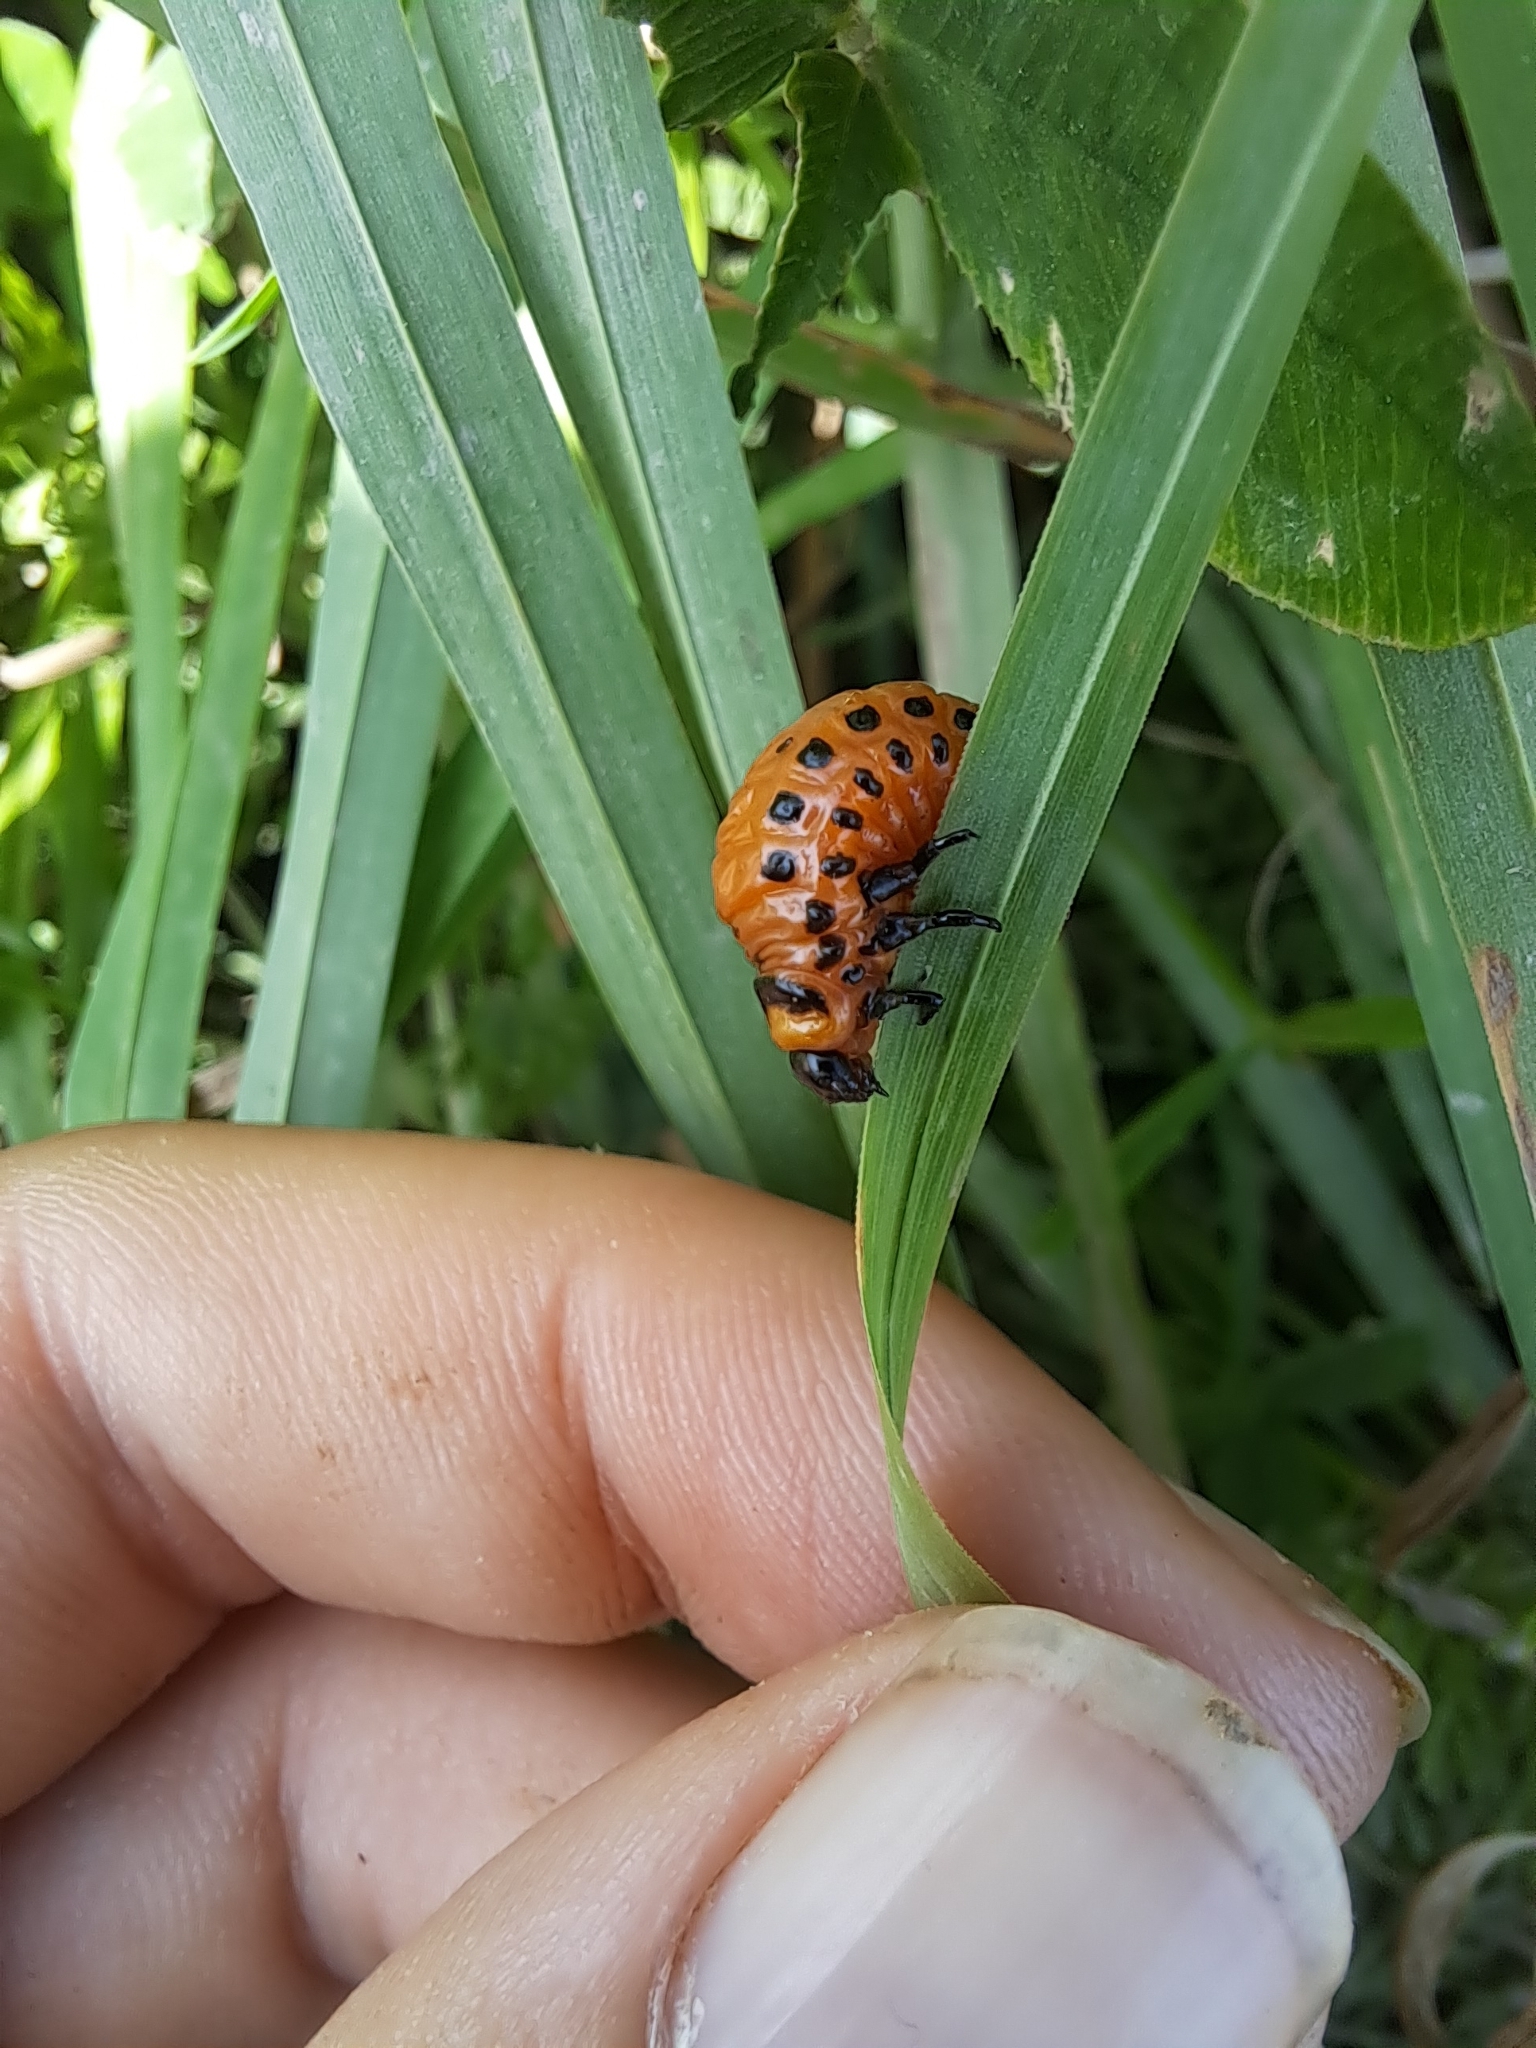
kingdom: Animalia
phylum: Arthropoda
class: Insecta
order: Coleoptera
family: Chrysomelidae
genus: Leptinotarsa
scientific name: Leptinotarsa decemlineata
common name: Colorado potato beetle
